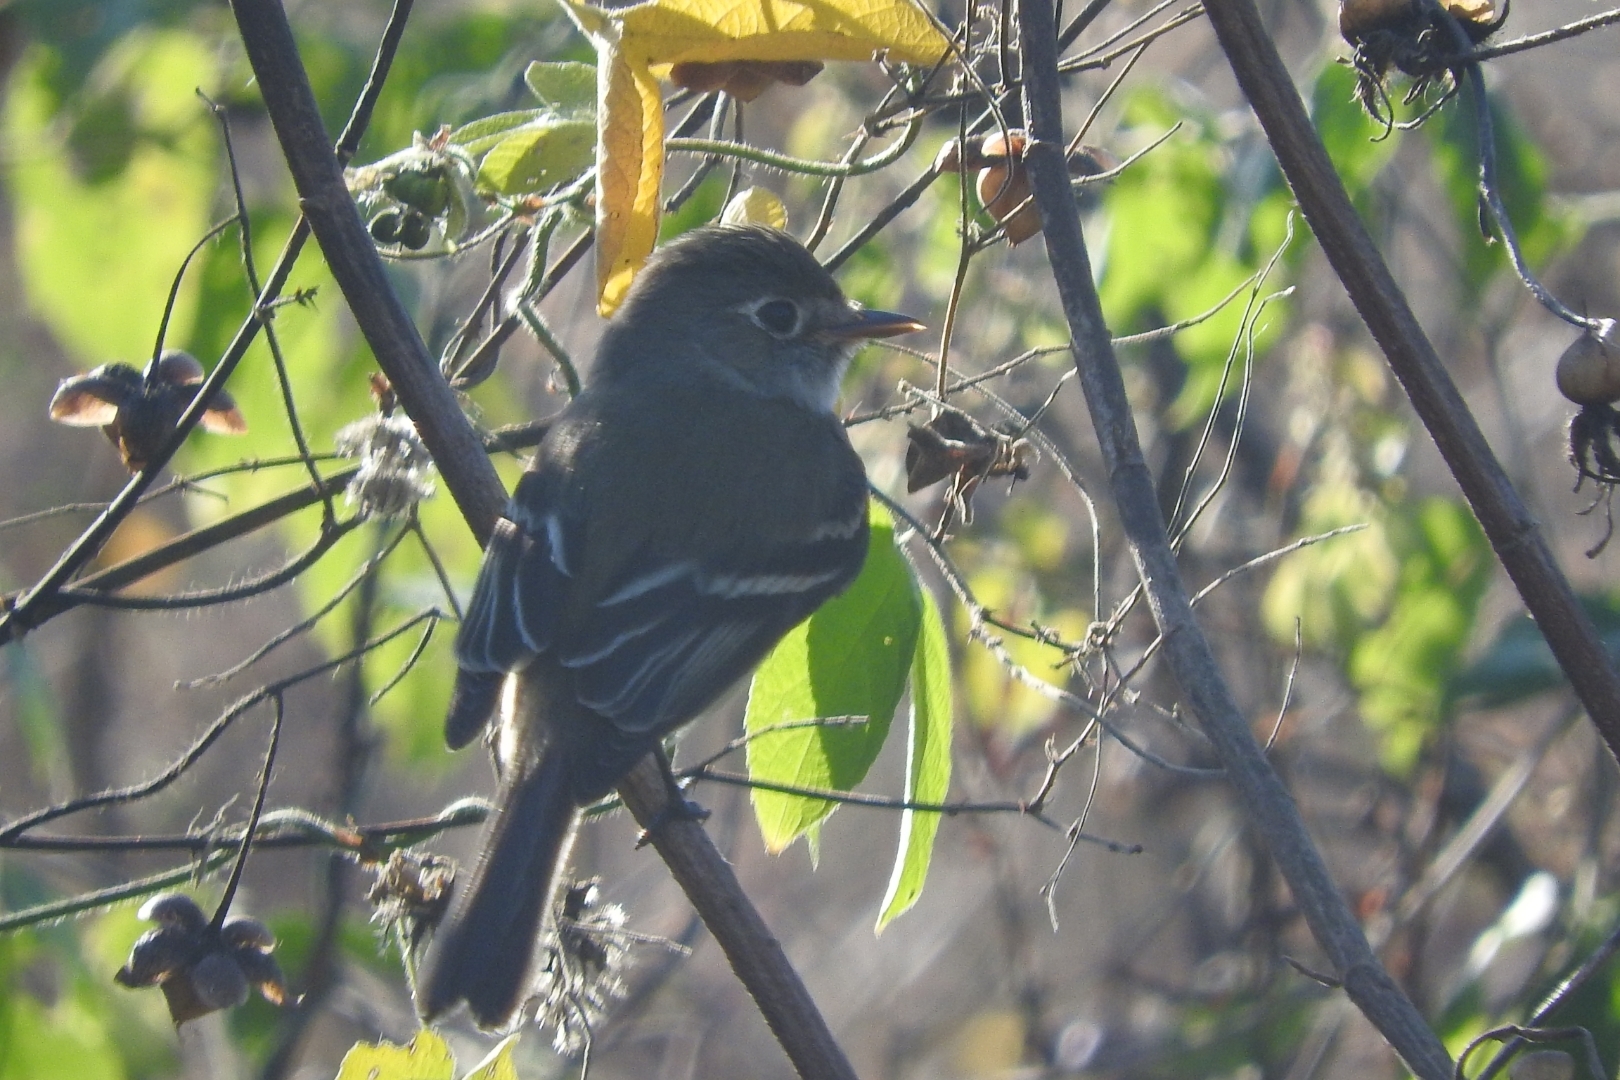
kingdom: Animalia
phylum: Chordata
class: Aves
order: Passeriformes
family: Tyrannidae
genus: Empidonax
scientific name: Empidonax minimus
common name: Least flycatcher
